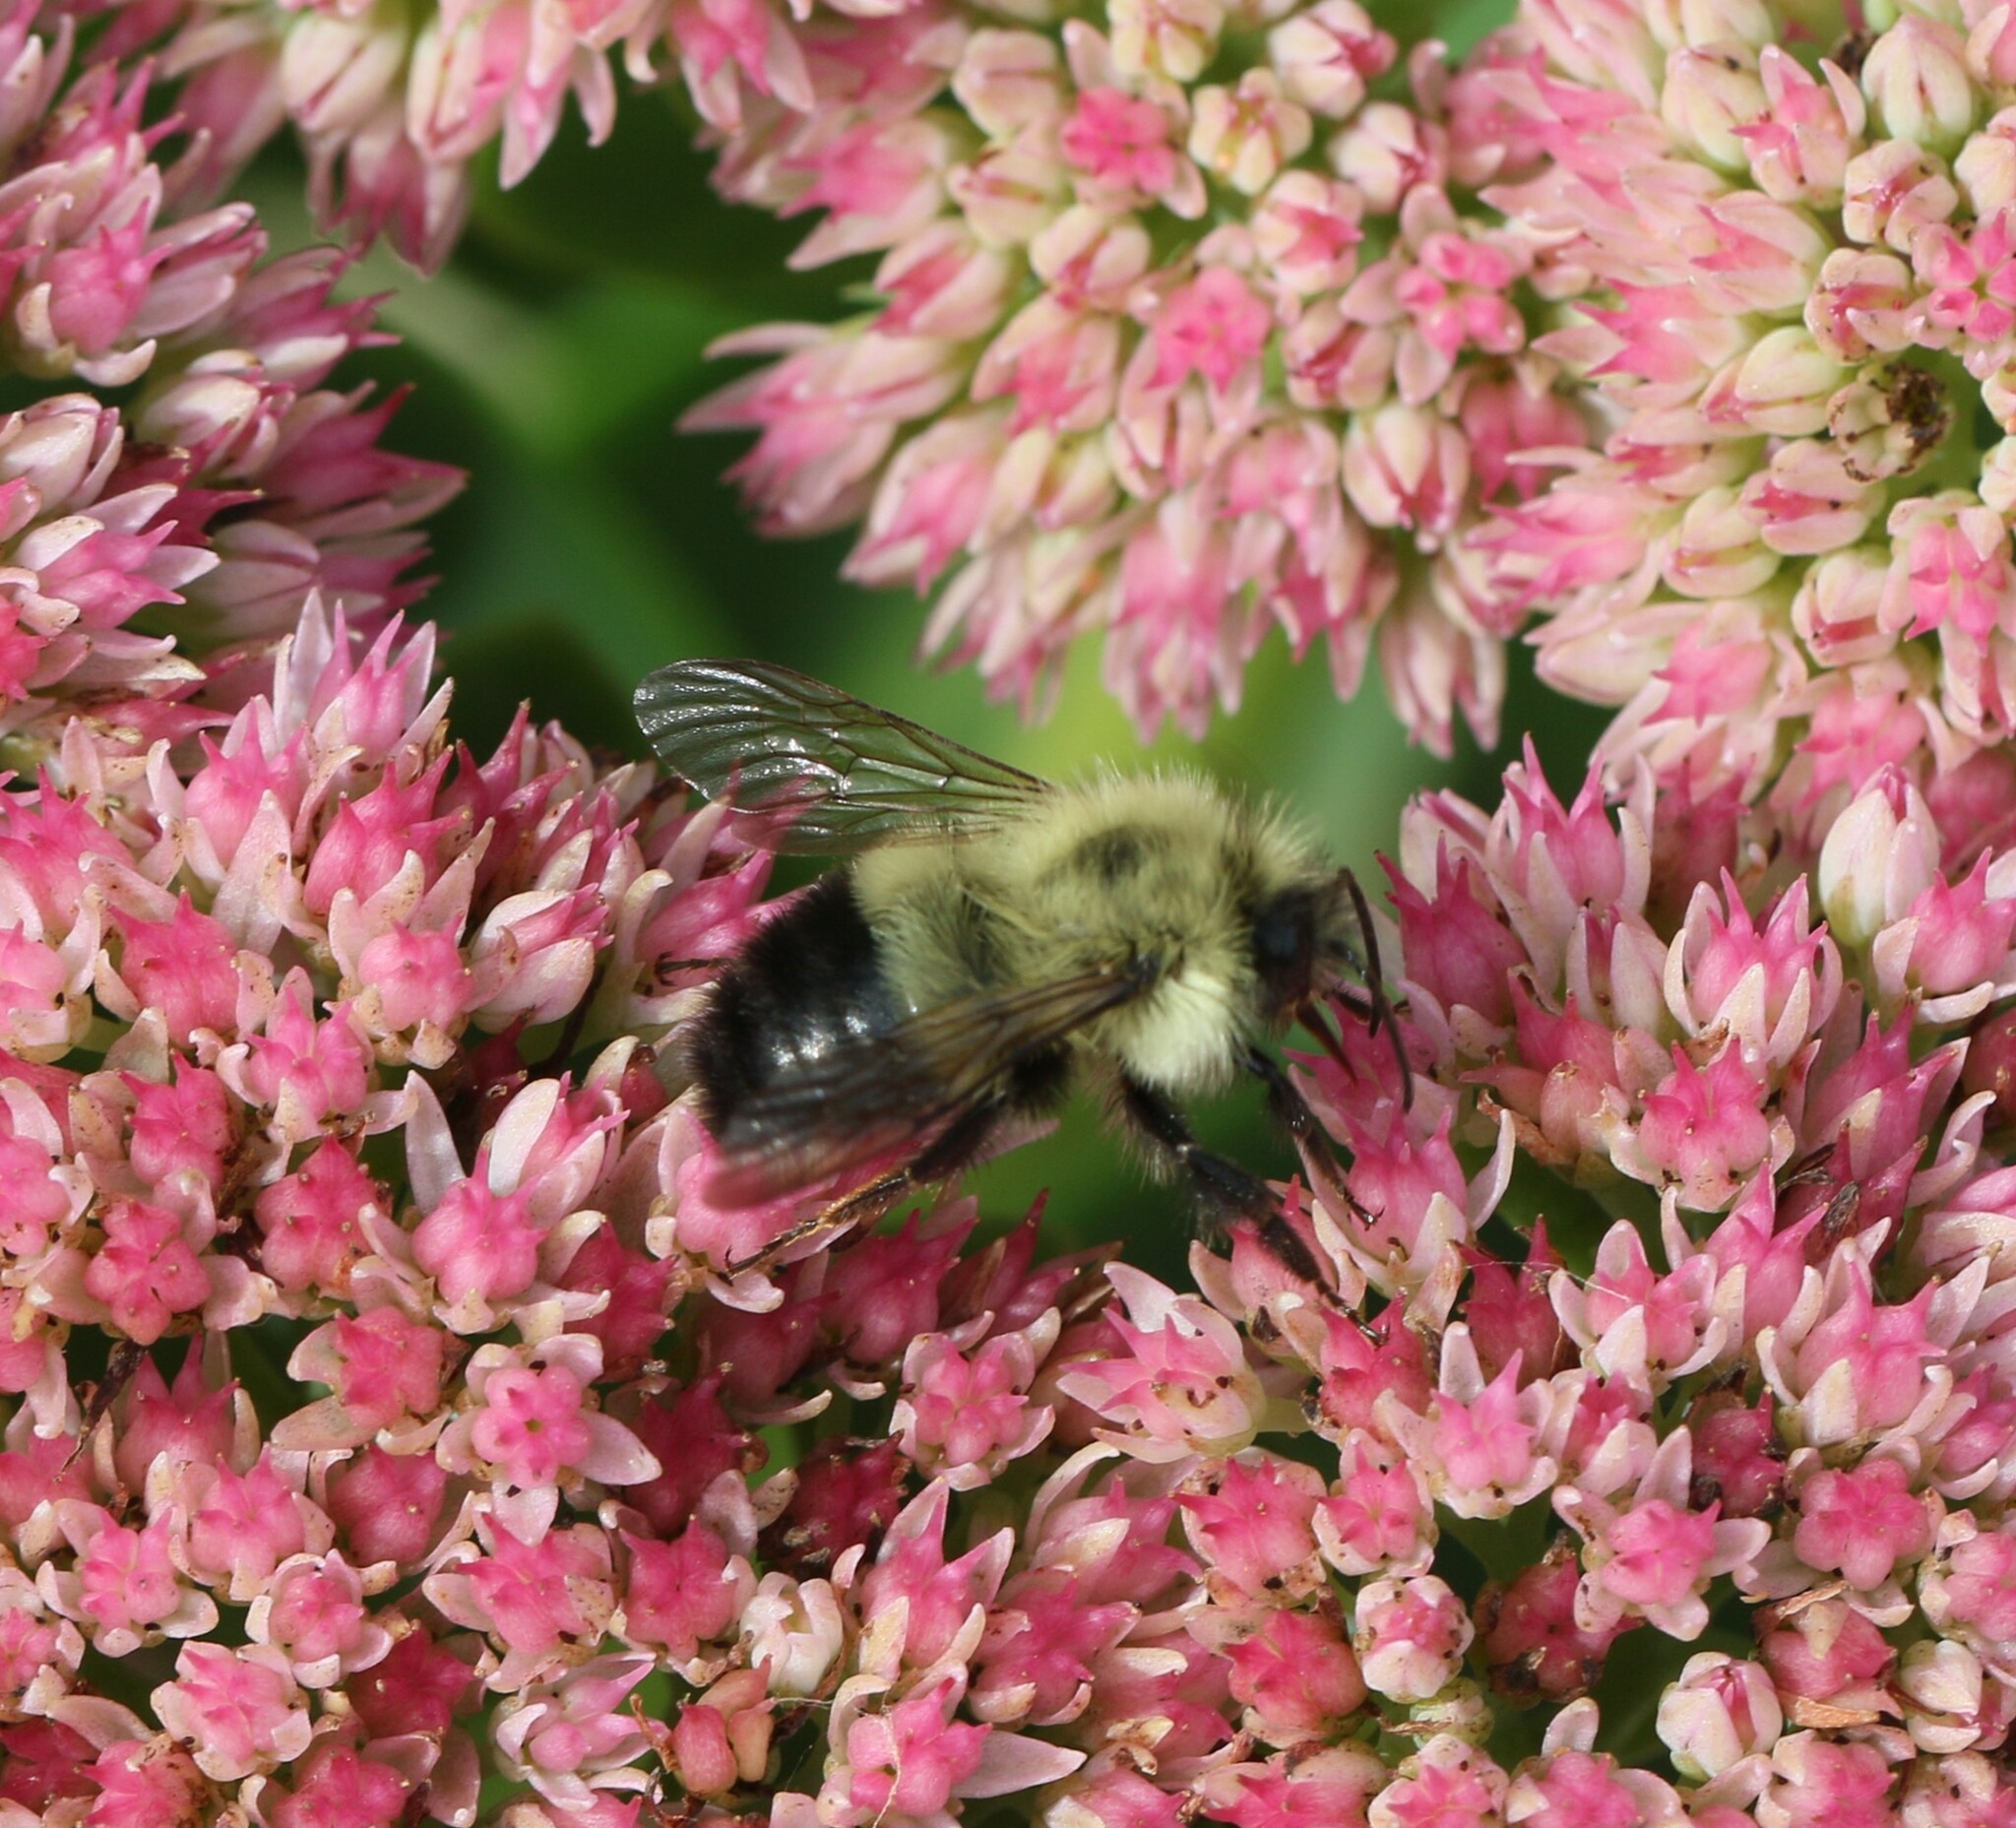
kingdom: Animalia
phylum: Arthropoda
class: Insecta
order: Hymenoptera
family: Apidae
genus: Pyrobombus
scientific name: Pyrobombus
